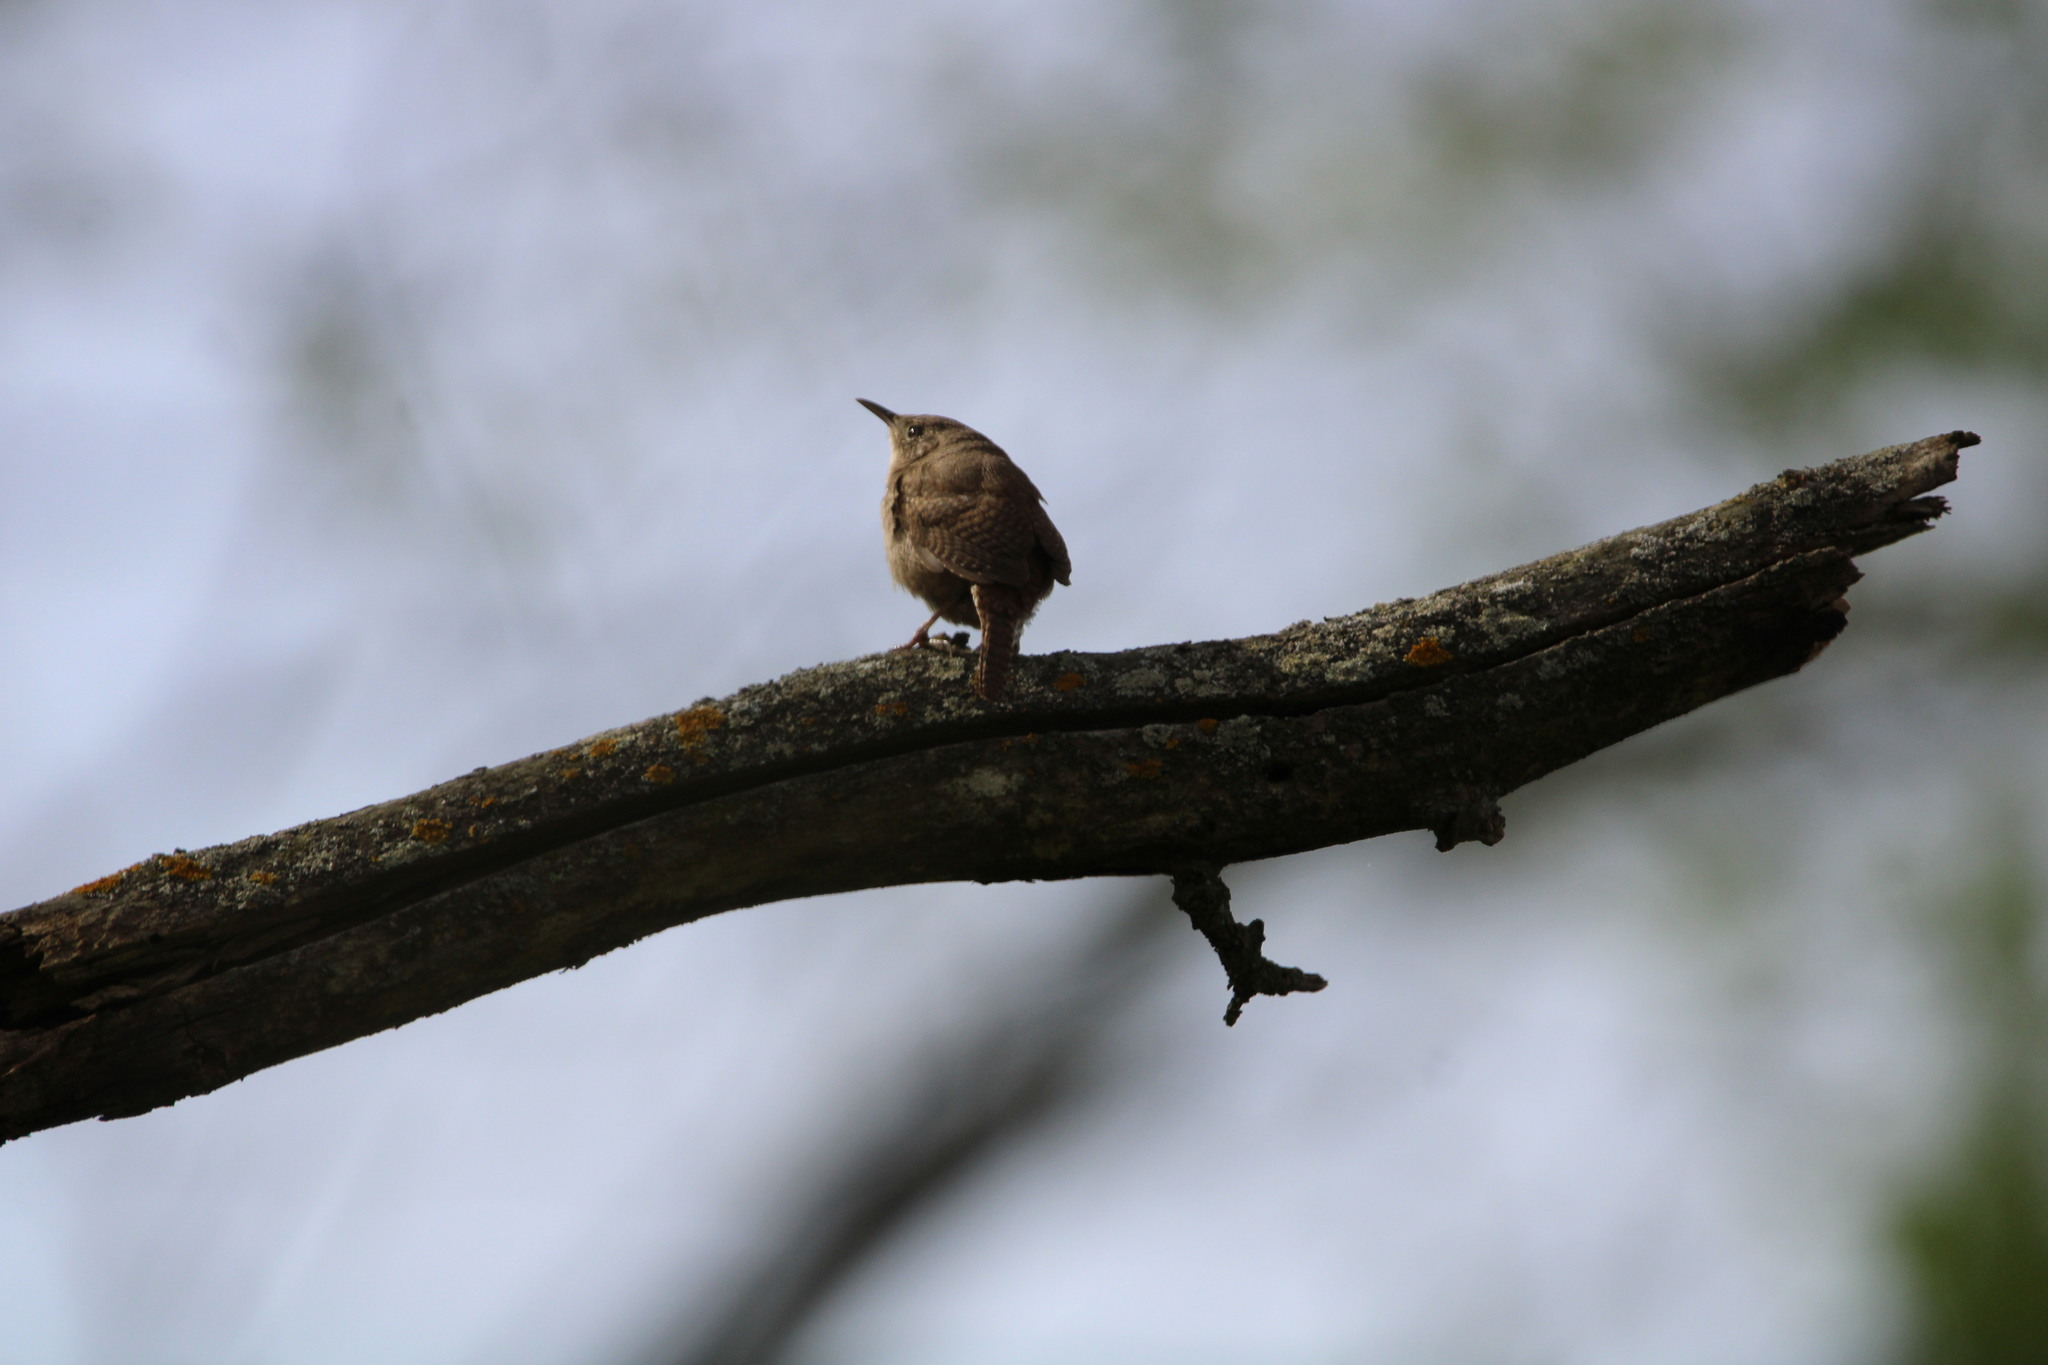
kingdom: Animalia
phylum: Chordata
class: Aves
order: Passeriformes
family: Troglodytidae
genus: Troglodytes
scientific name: Troglodytes aedon
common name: House wren
